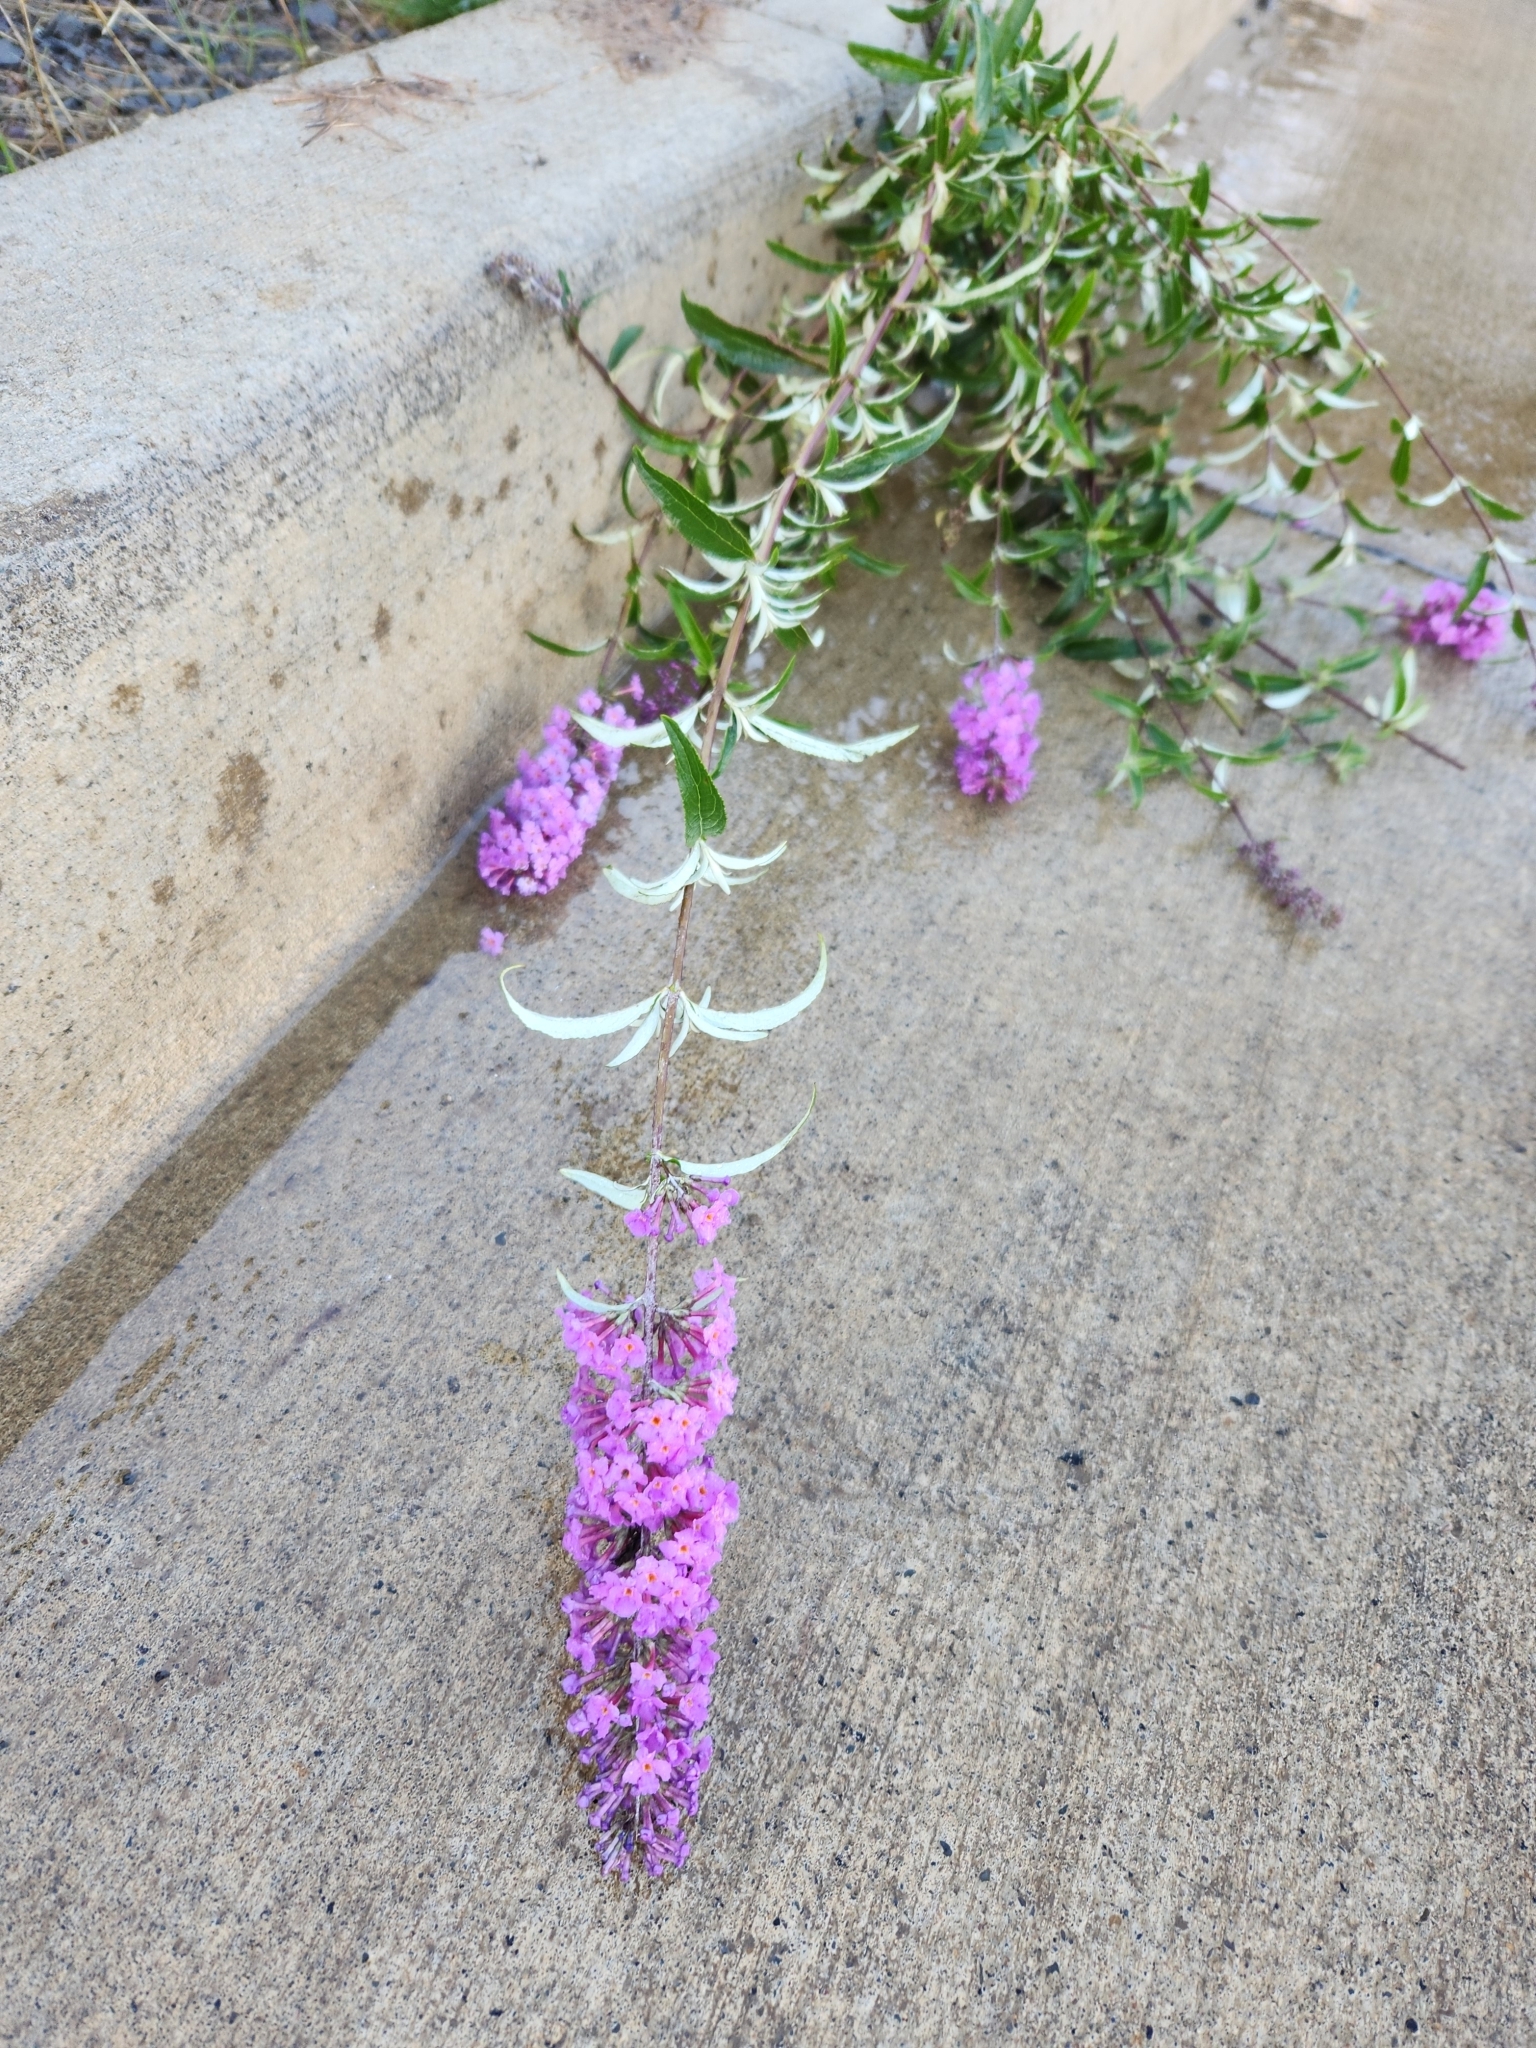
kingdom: Plantae
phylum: Tracheophyta
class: Magnoliopsida
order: Lamiales
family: Scrophulariaceae
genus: Buddleja
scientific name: Buddleja davidii
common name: Butterfly-bush
